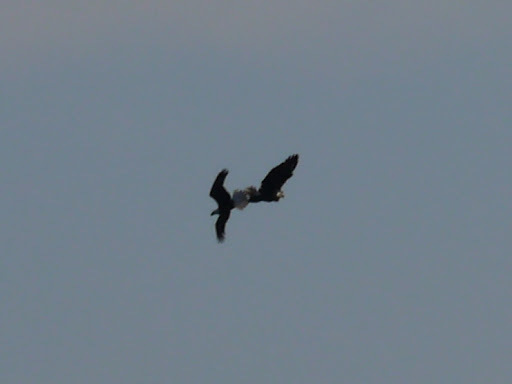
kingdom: Animalia
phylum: Chordata
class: Aves
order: Accipitriformes
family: Accipitridae
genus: Haliaeetus
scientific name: Haliaeetus leucocephalus
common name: Bald eagle
